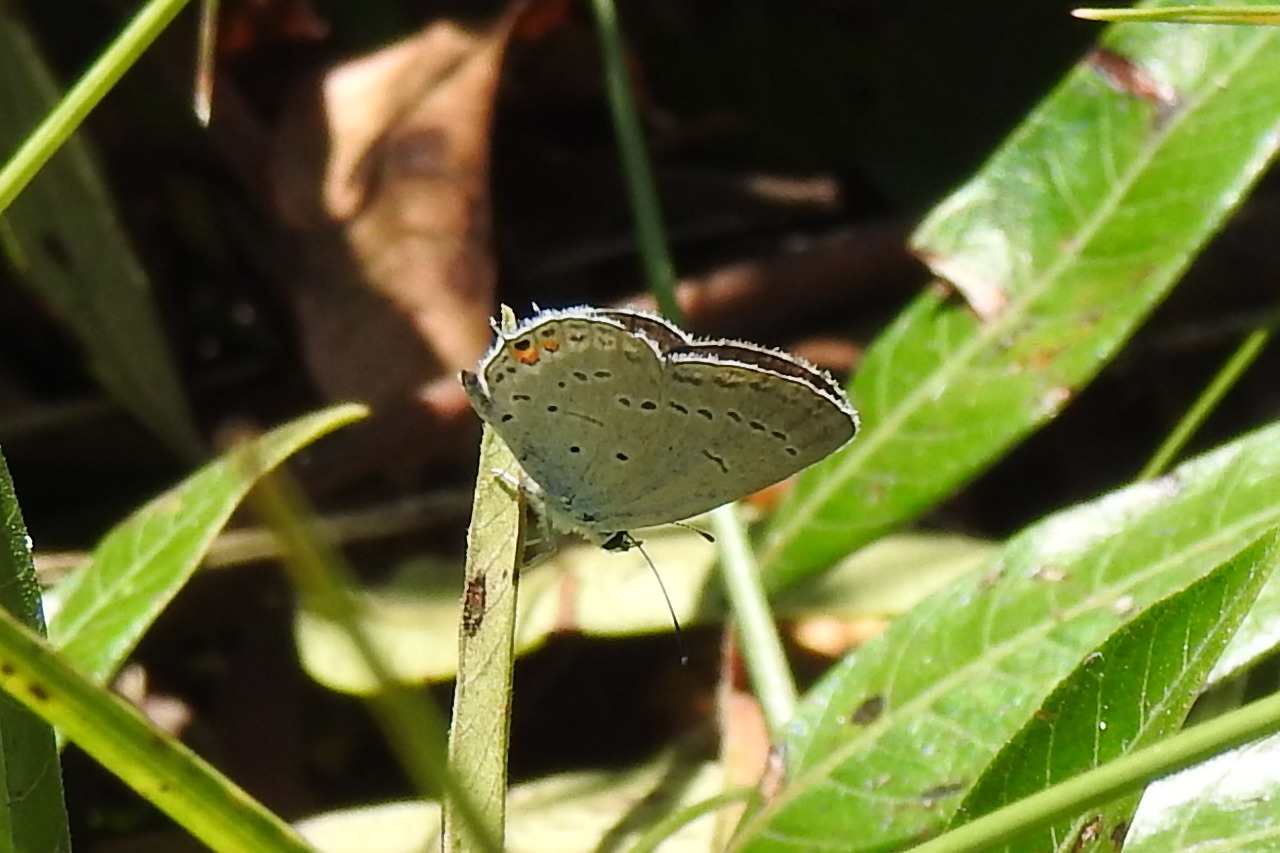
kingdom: Animalia
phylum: Arthropoda
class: Insecta
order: Lepidoptera
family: Lycaenidae
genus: Elkalyce
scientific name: Elkalyce comyntas
